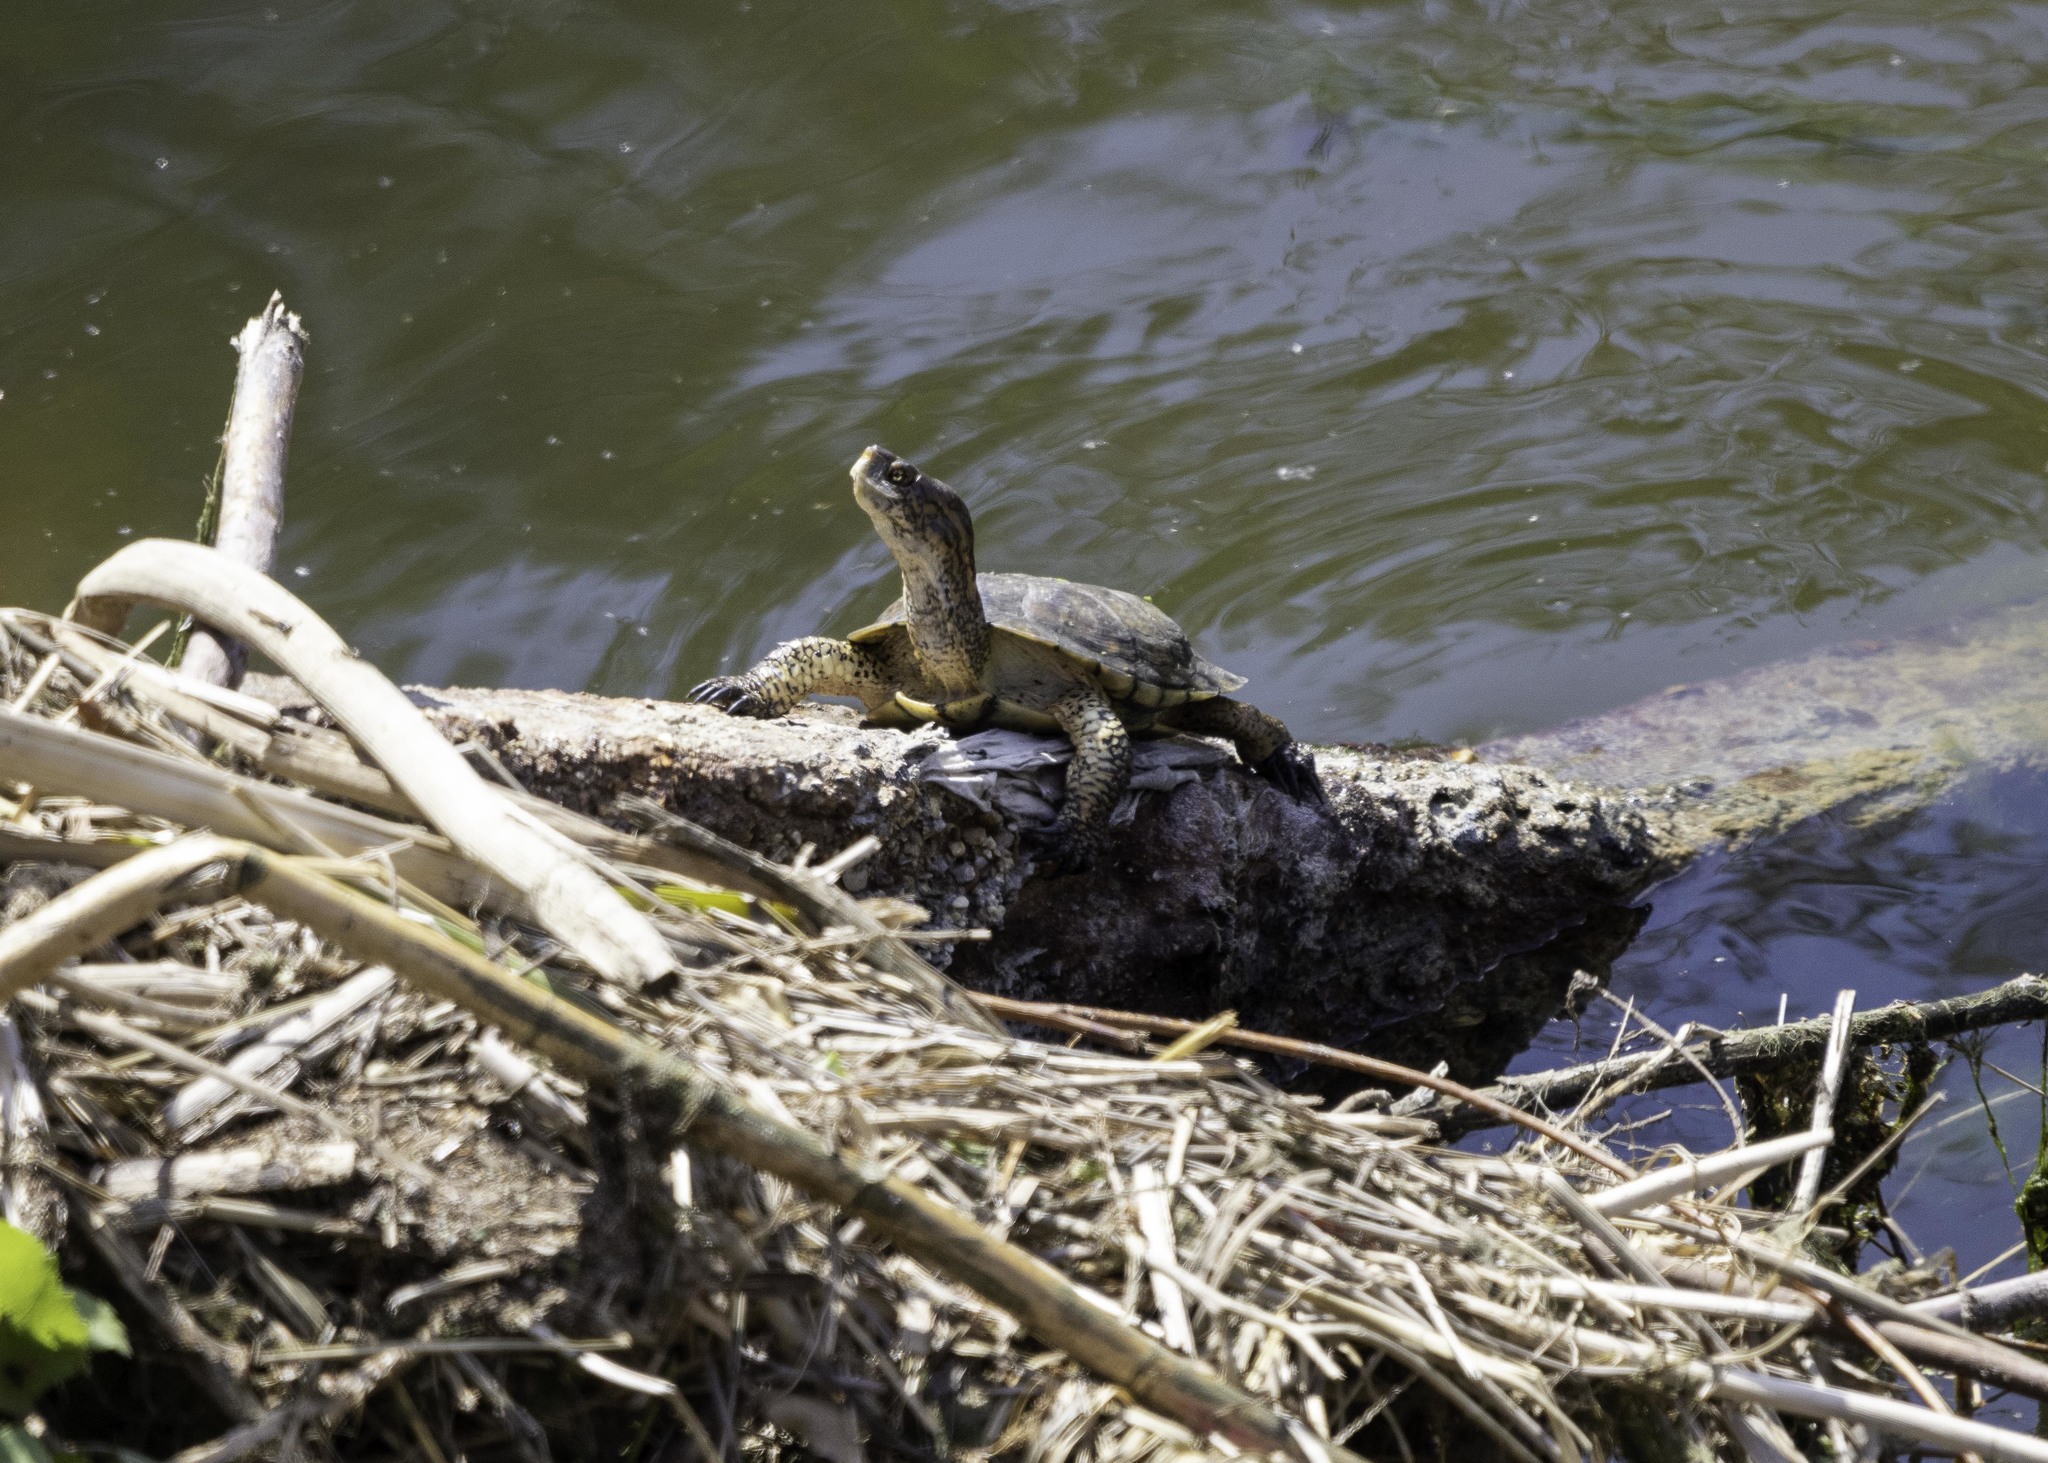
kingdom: Animalia
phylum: Chordata
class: Testudines
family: Emydidae
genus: Actinemys
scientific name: Actinemys marmorata
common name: Western pond turtle
